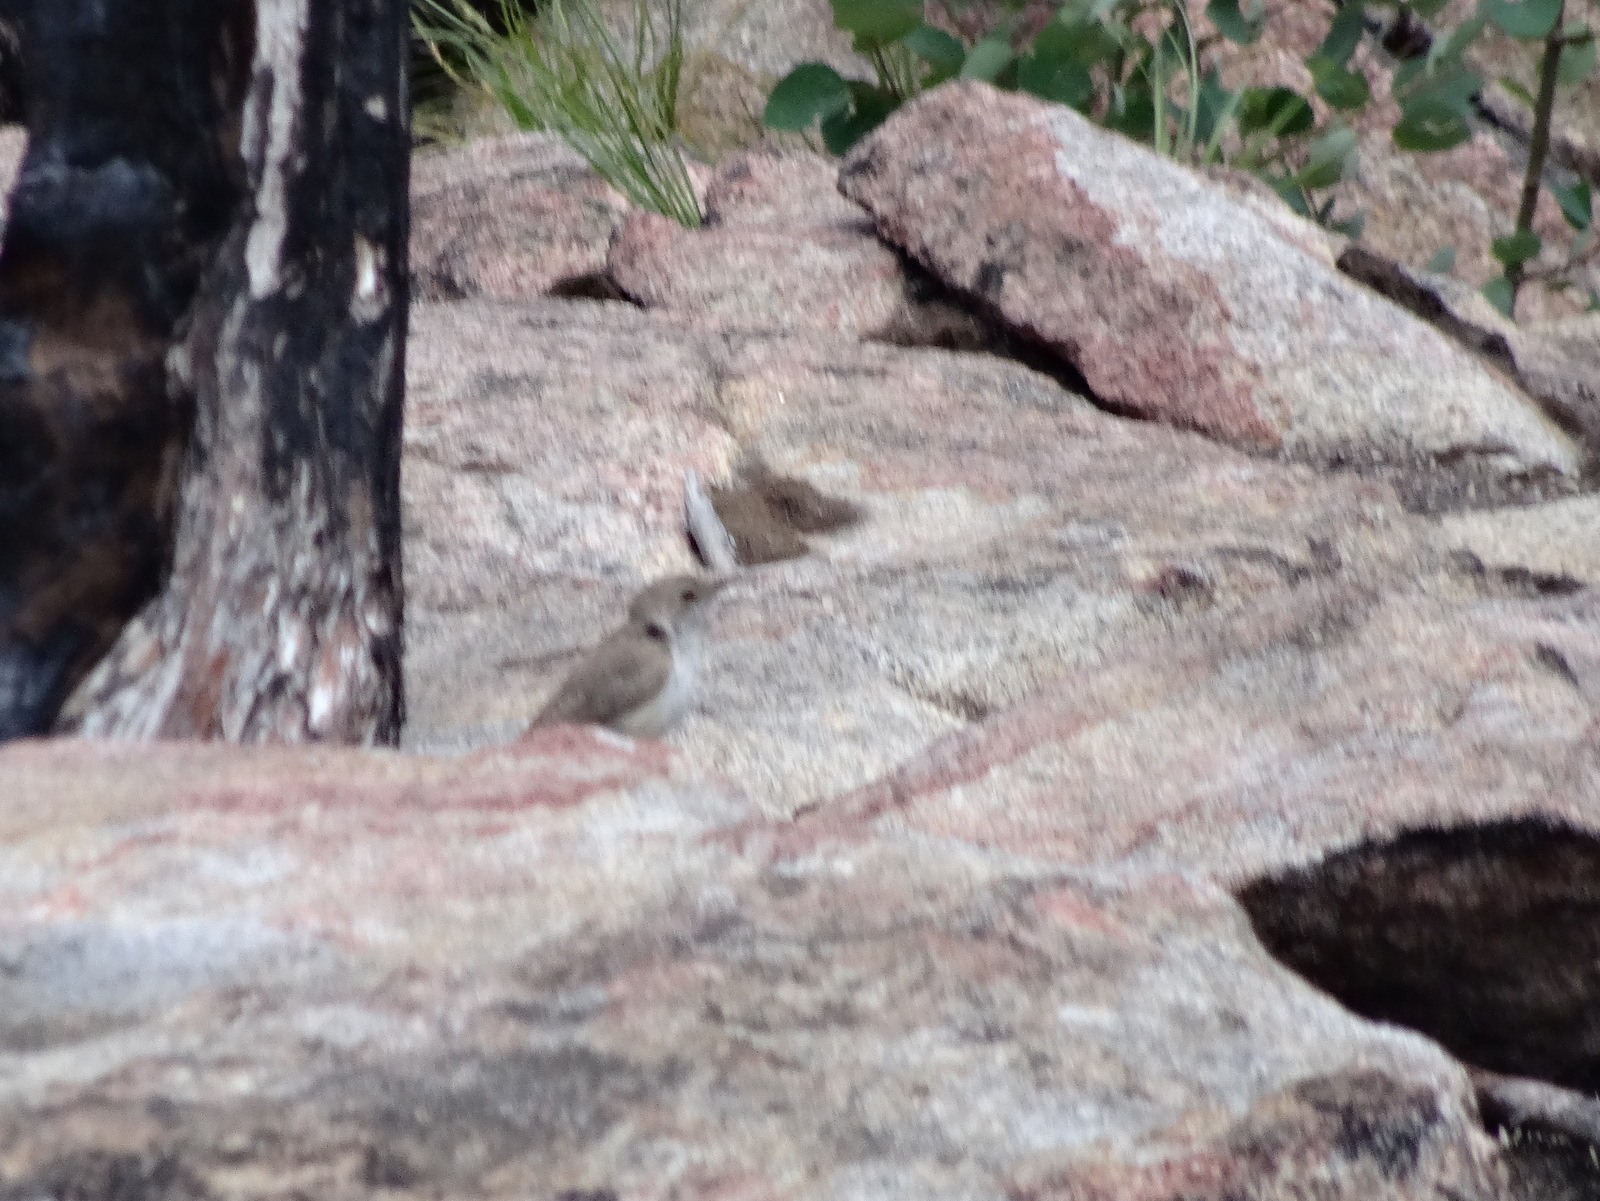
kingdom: Animalia
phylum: Chordata
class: Aves
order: Passeriformes
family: Troglodytidae
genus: Salpinctes
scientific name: Salpinctes obsoletus
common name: Rock wren
